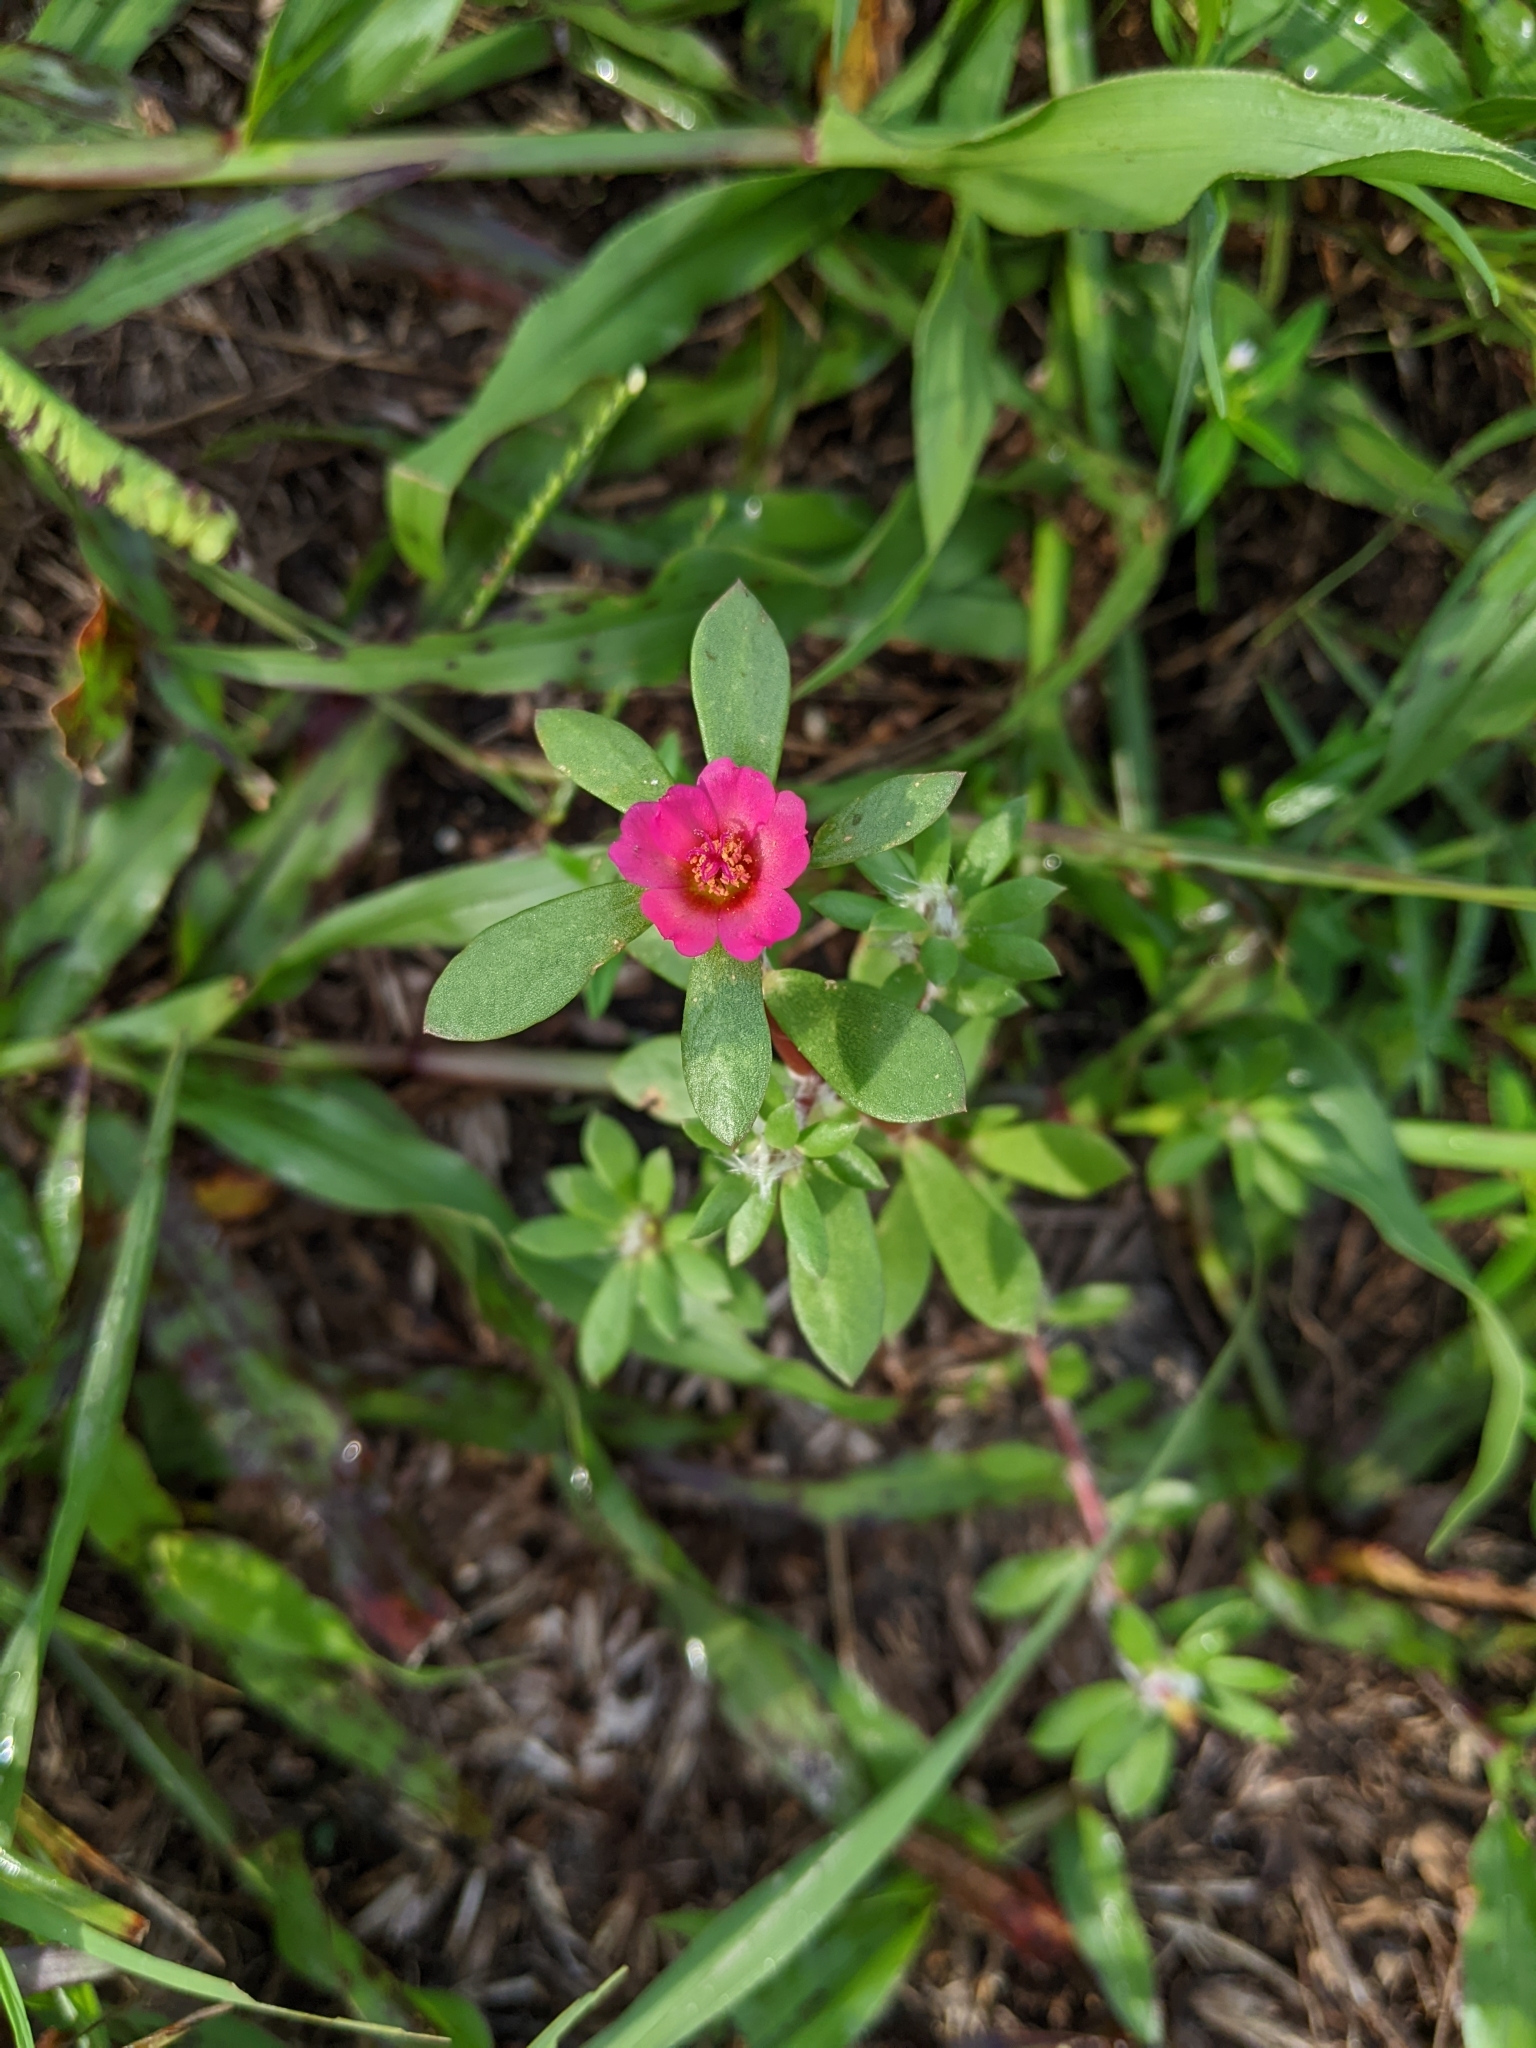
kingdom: Plantae
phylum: Tracheophyta
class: Magnoliopsida
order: Caryophyllales
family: Portulacaceae
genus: Portulaca
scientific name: Portulaca amilis
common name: Paraguayan purslane
